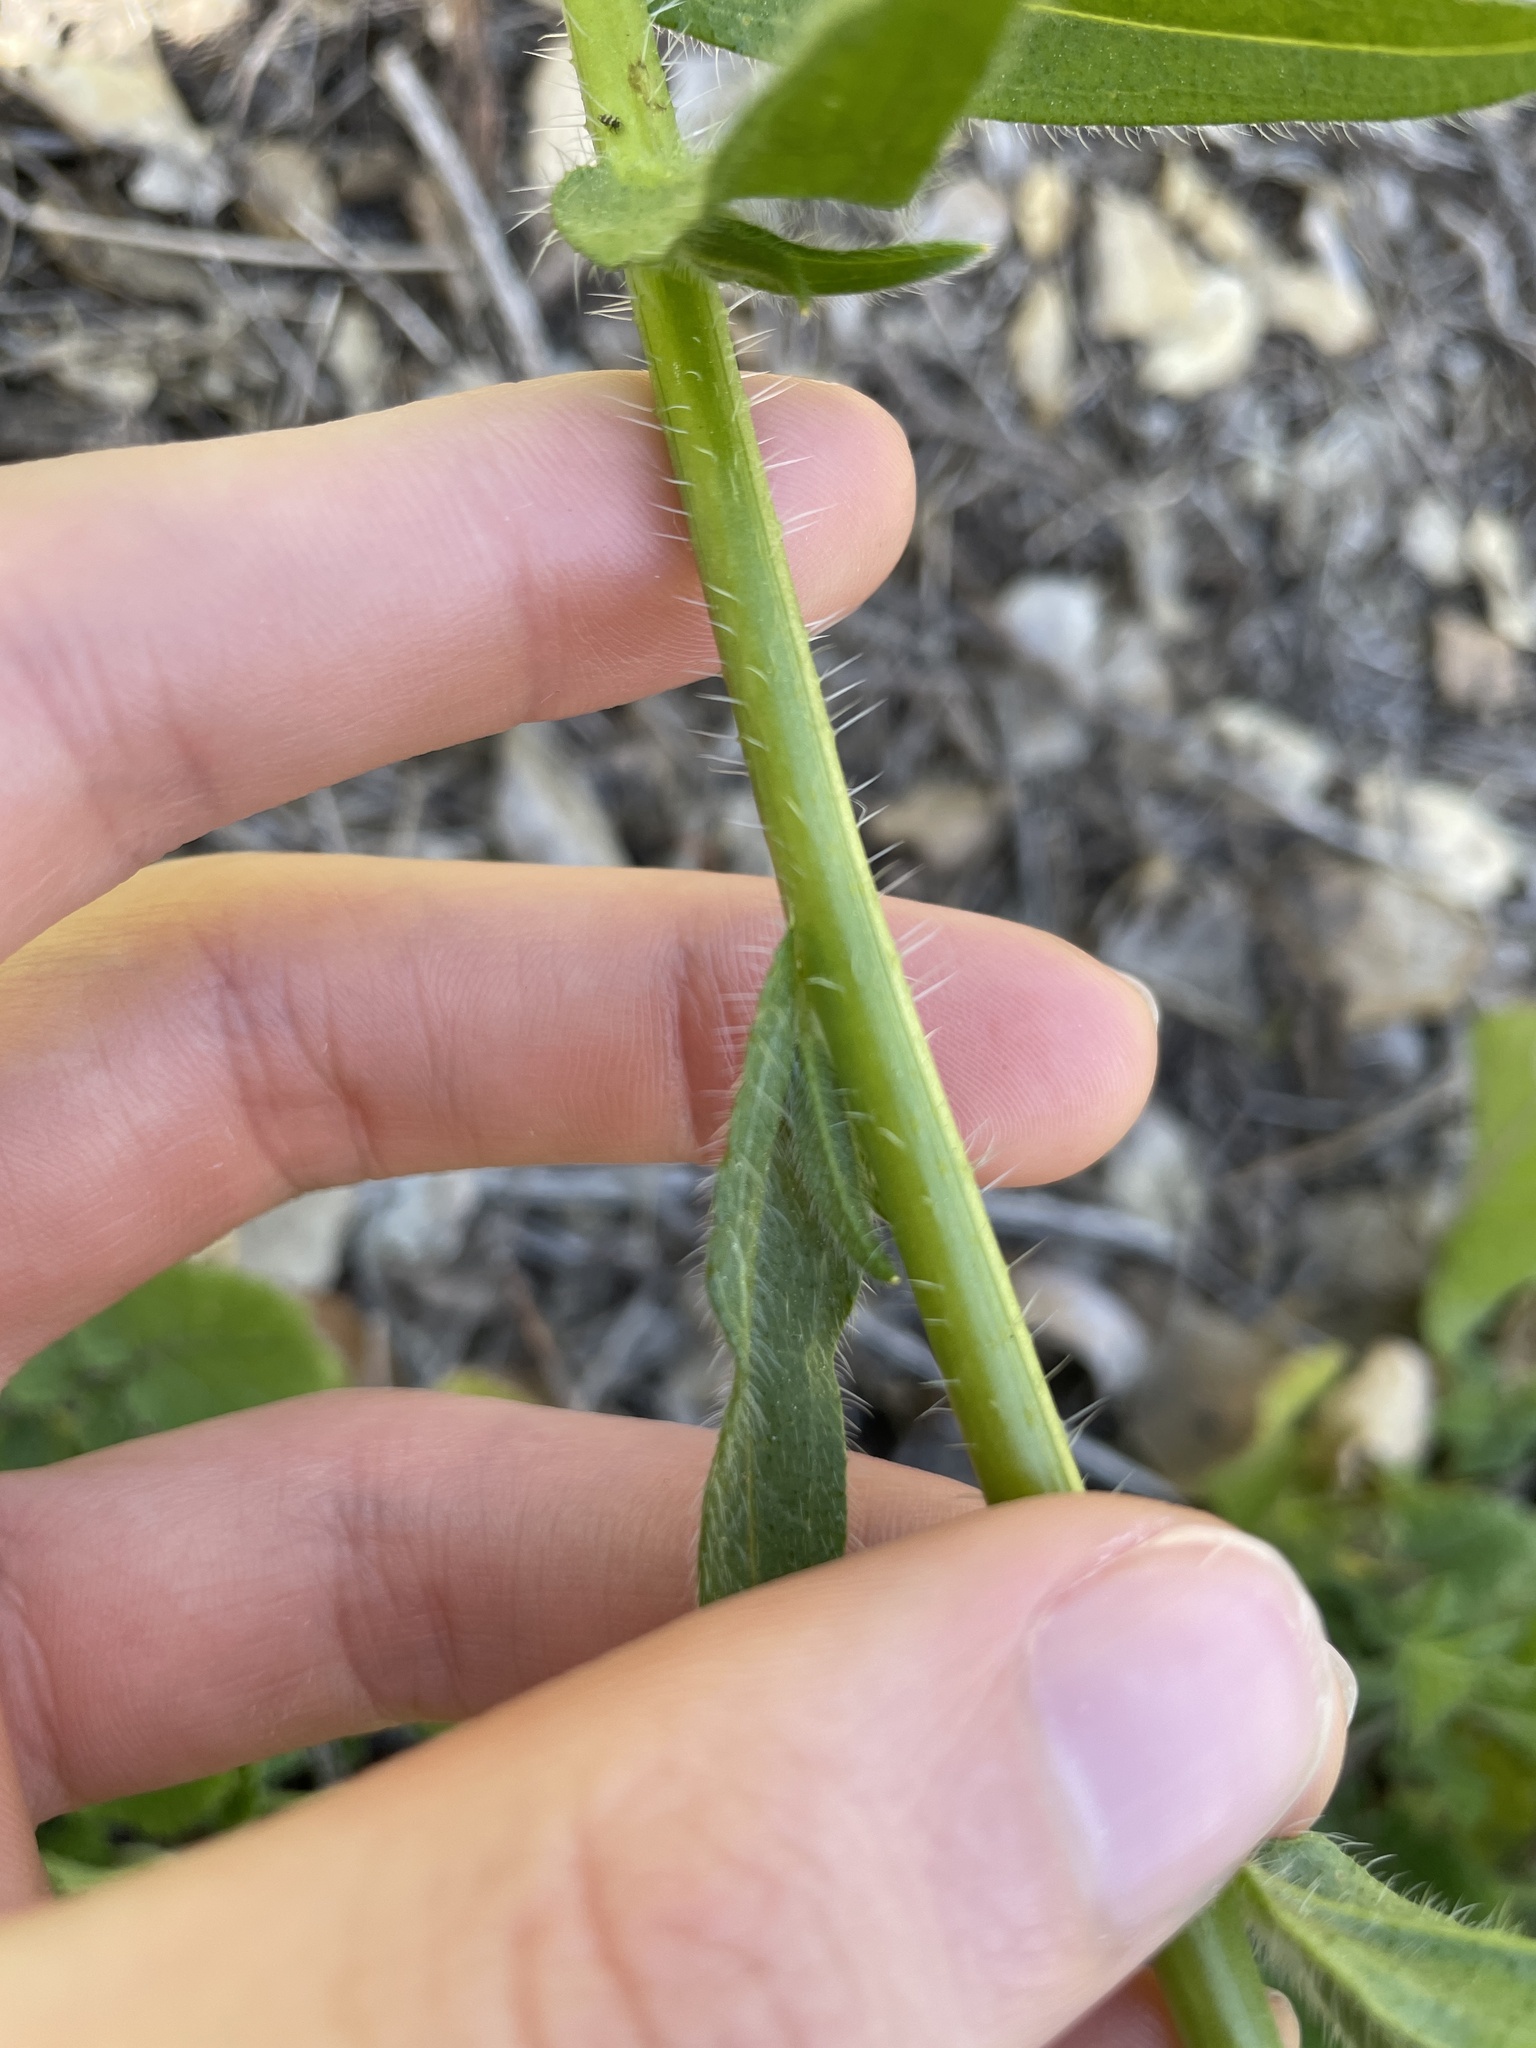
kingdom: Plantae
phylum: Tracheophyta
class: Magnoliopsida
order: Boraginales
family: Boraginaceae
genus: Amsinckia
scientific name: Amsinckia tessellata
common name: Tessellate fiddleneck
